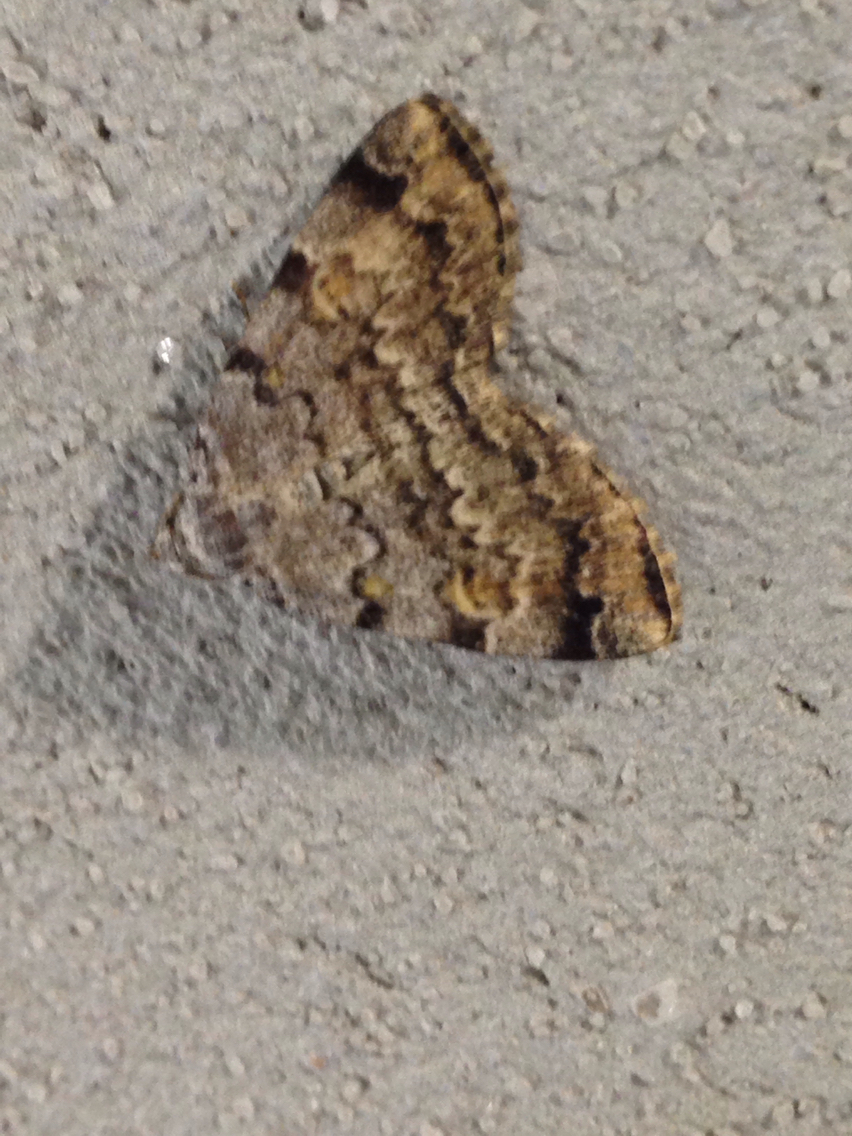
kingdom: Animalia
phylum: Arthropoda
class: Insecta
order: Lepidoptera
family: Erebidae
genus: Idia
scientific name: Idia americalis
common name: American idia moth
